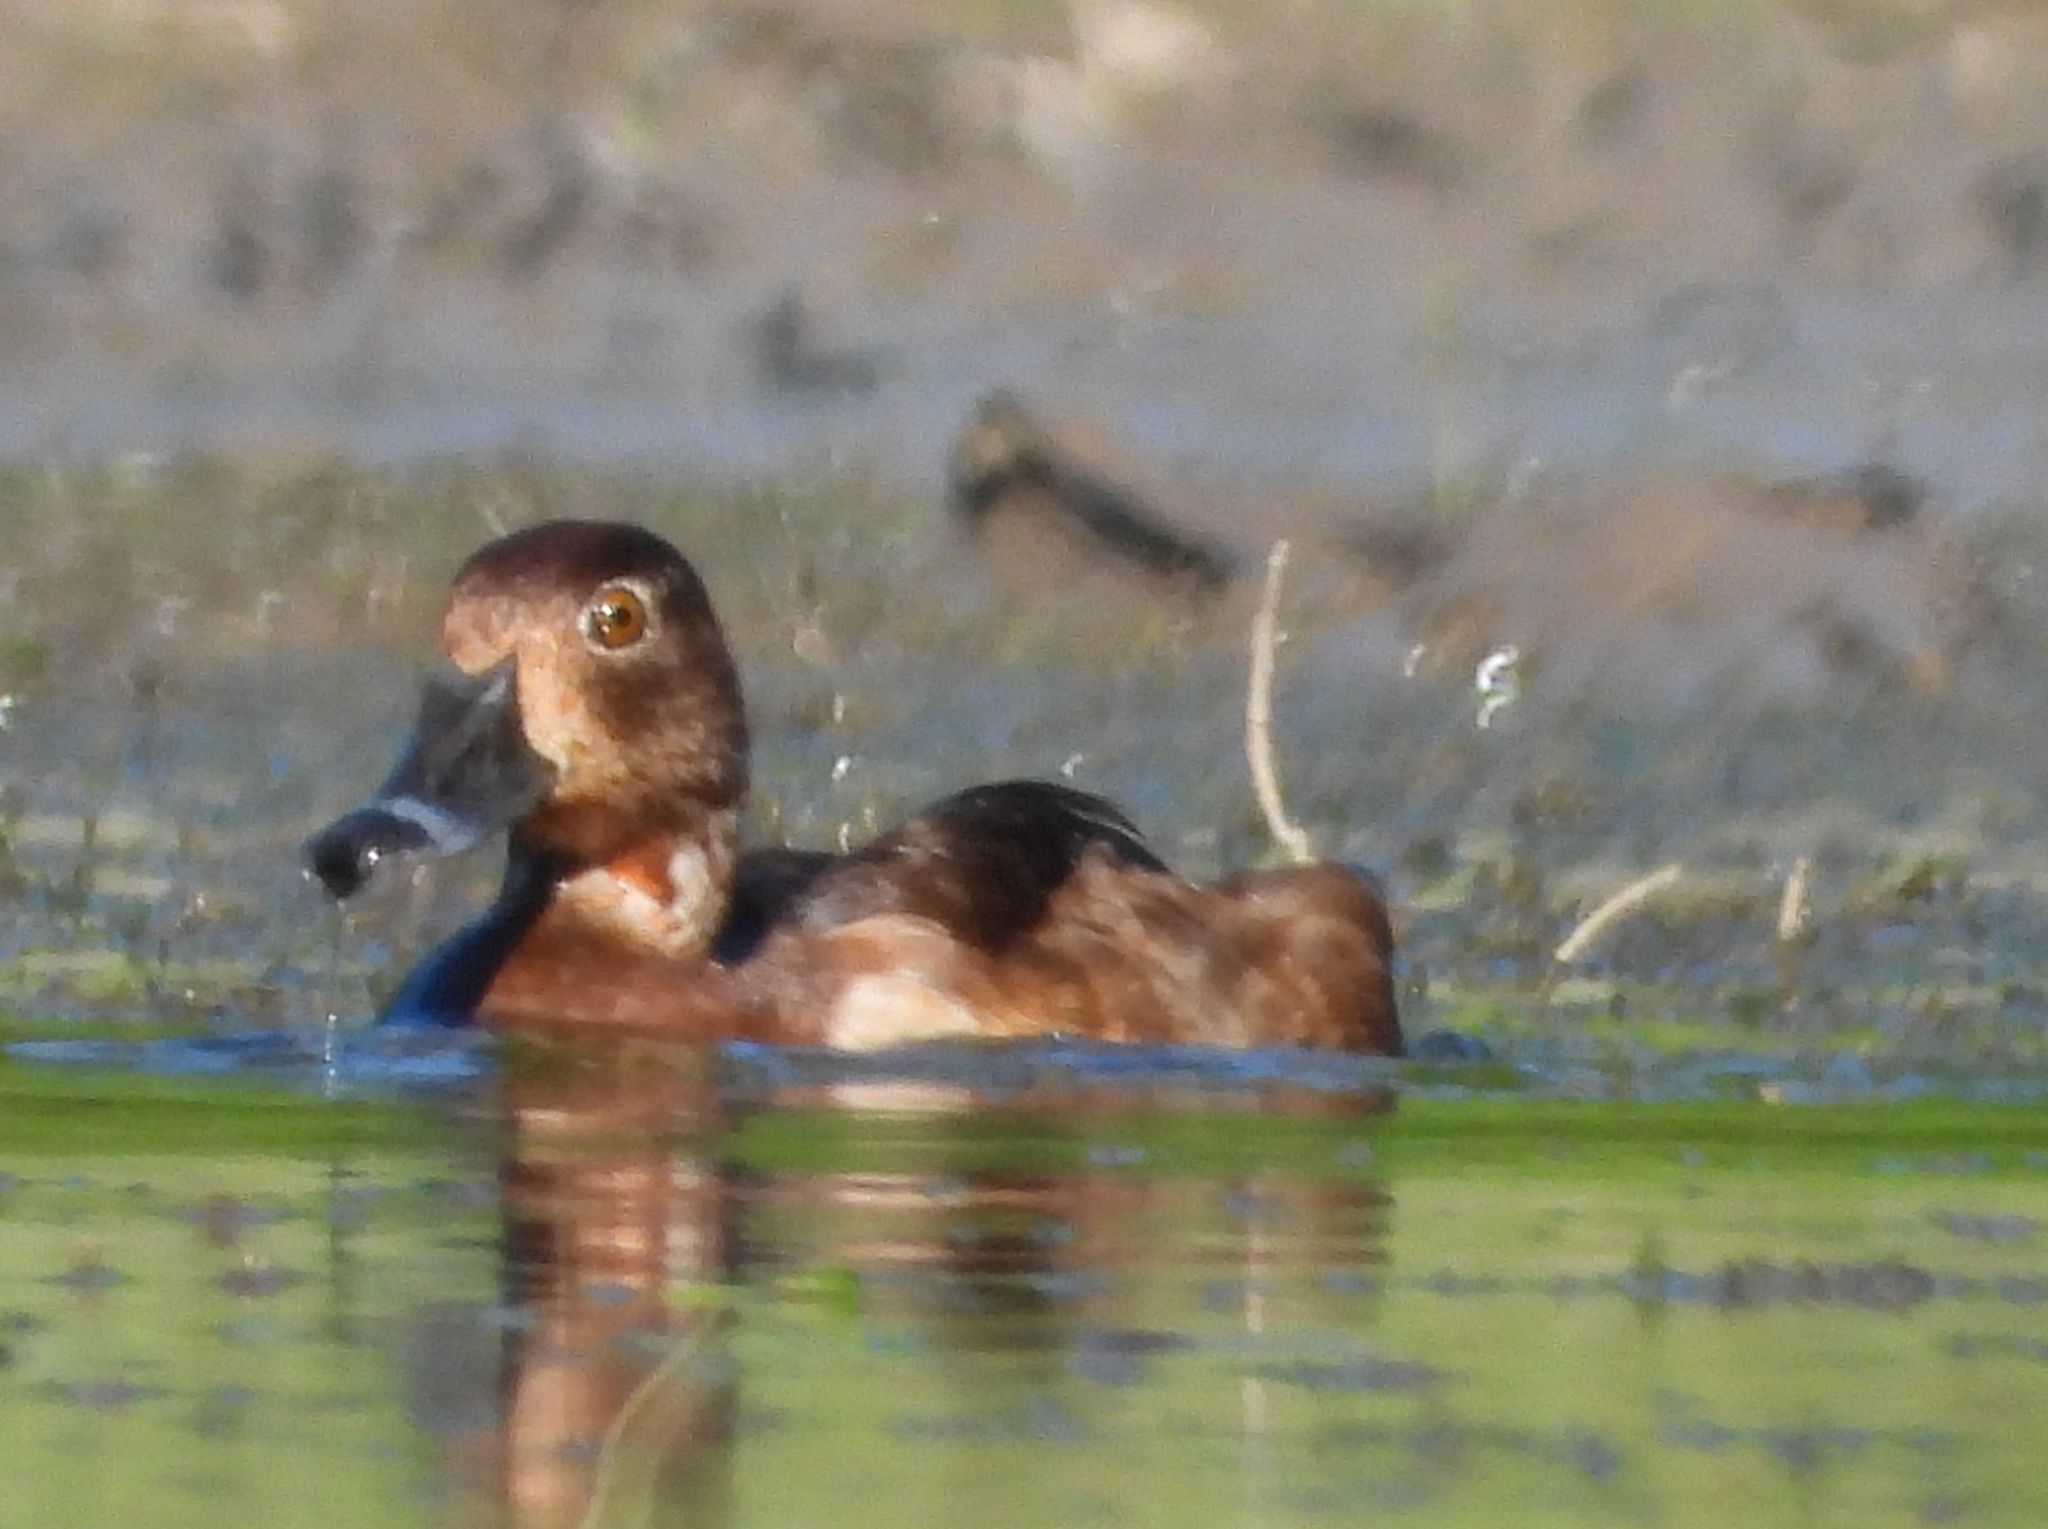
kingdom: Animalia
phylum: Chordata
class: Aves
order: Anseriformes
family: Anatidae
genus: Aythya
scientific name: Aythya collaris
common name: Ring-necked duck
